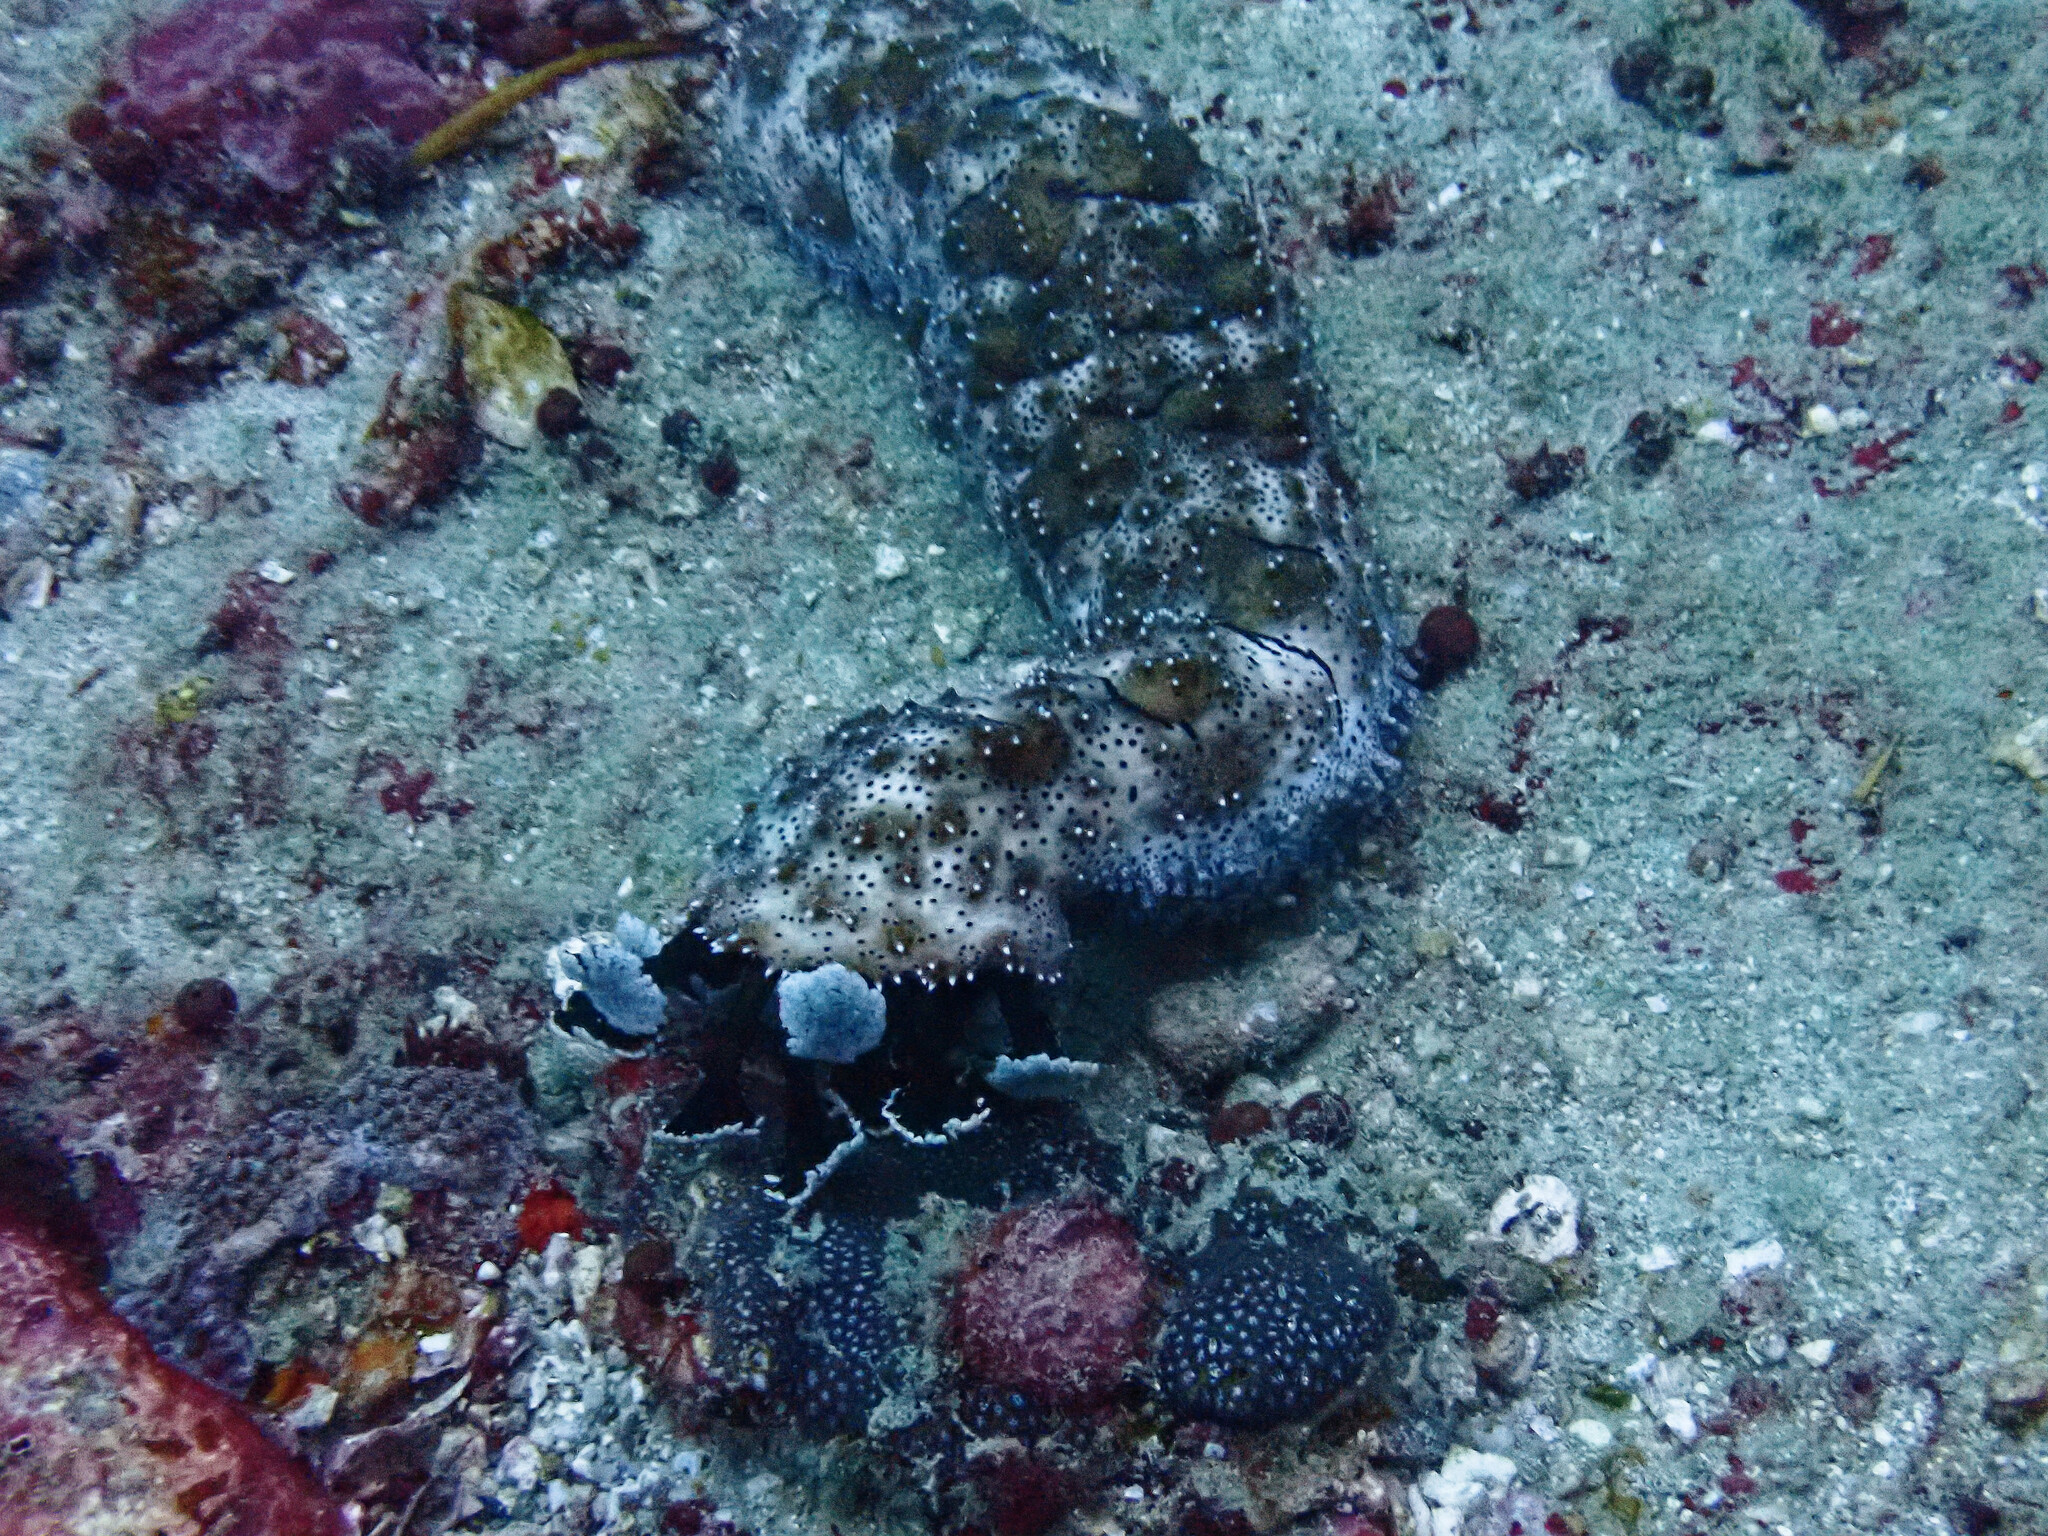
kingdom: Animalia
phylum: Echinodermata
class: Holothuroidea
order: Holothuriida
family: Holothuriidae
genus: Pearsonothuria
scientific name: Pearsonothuria graeffei
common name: Blackspotted sea cucumber
